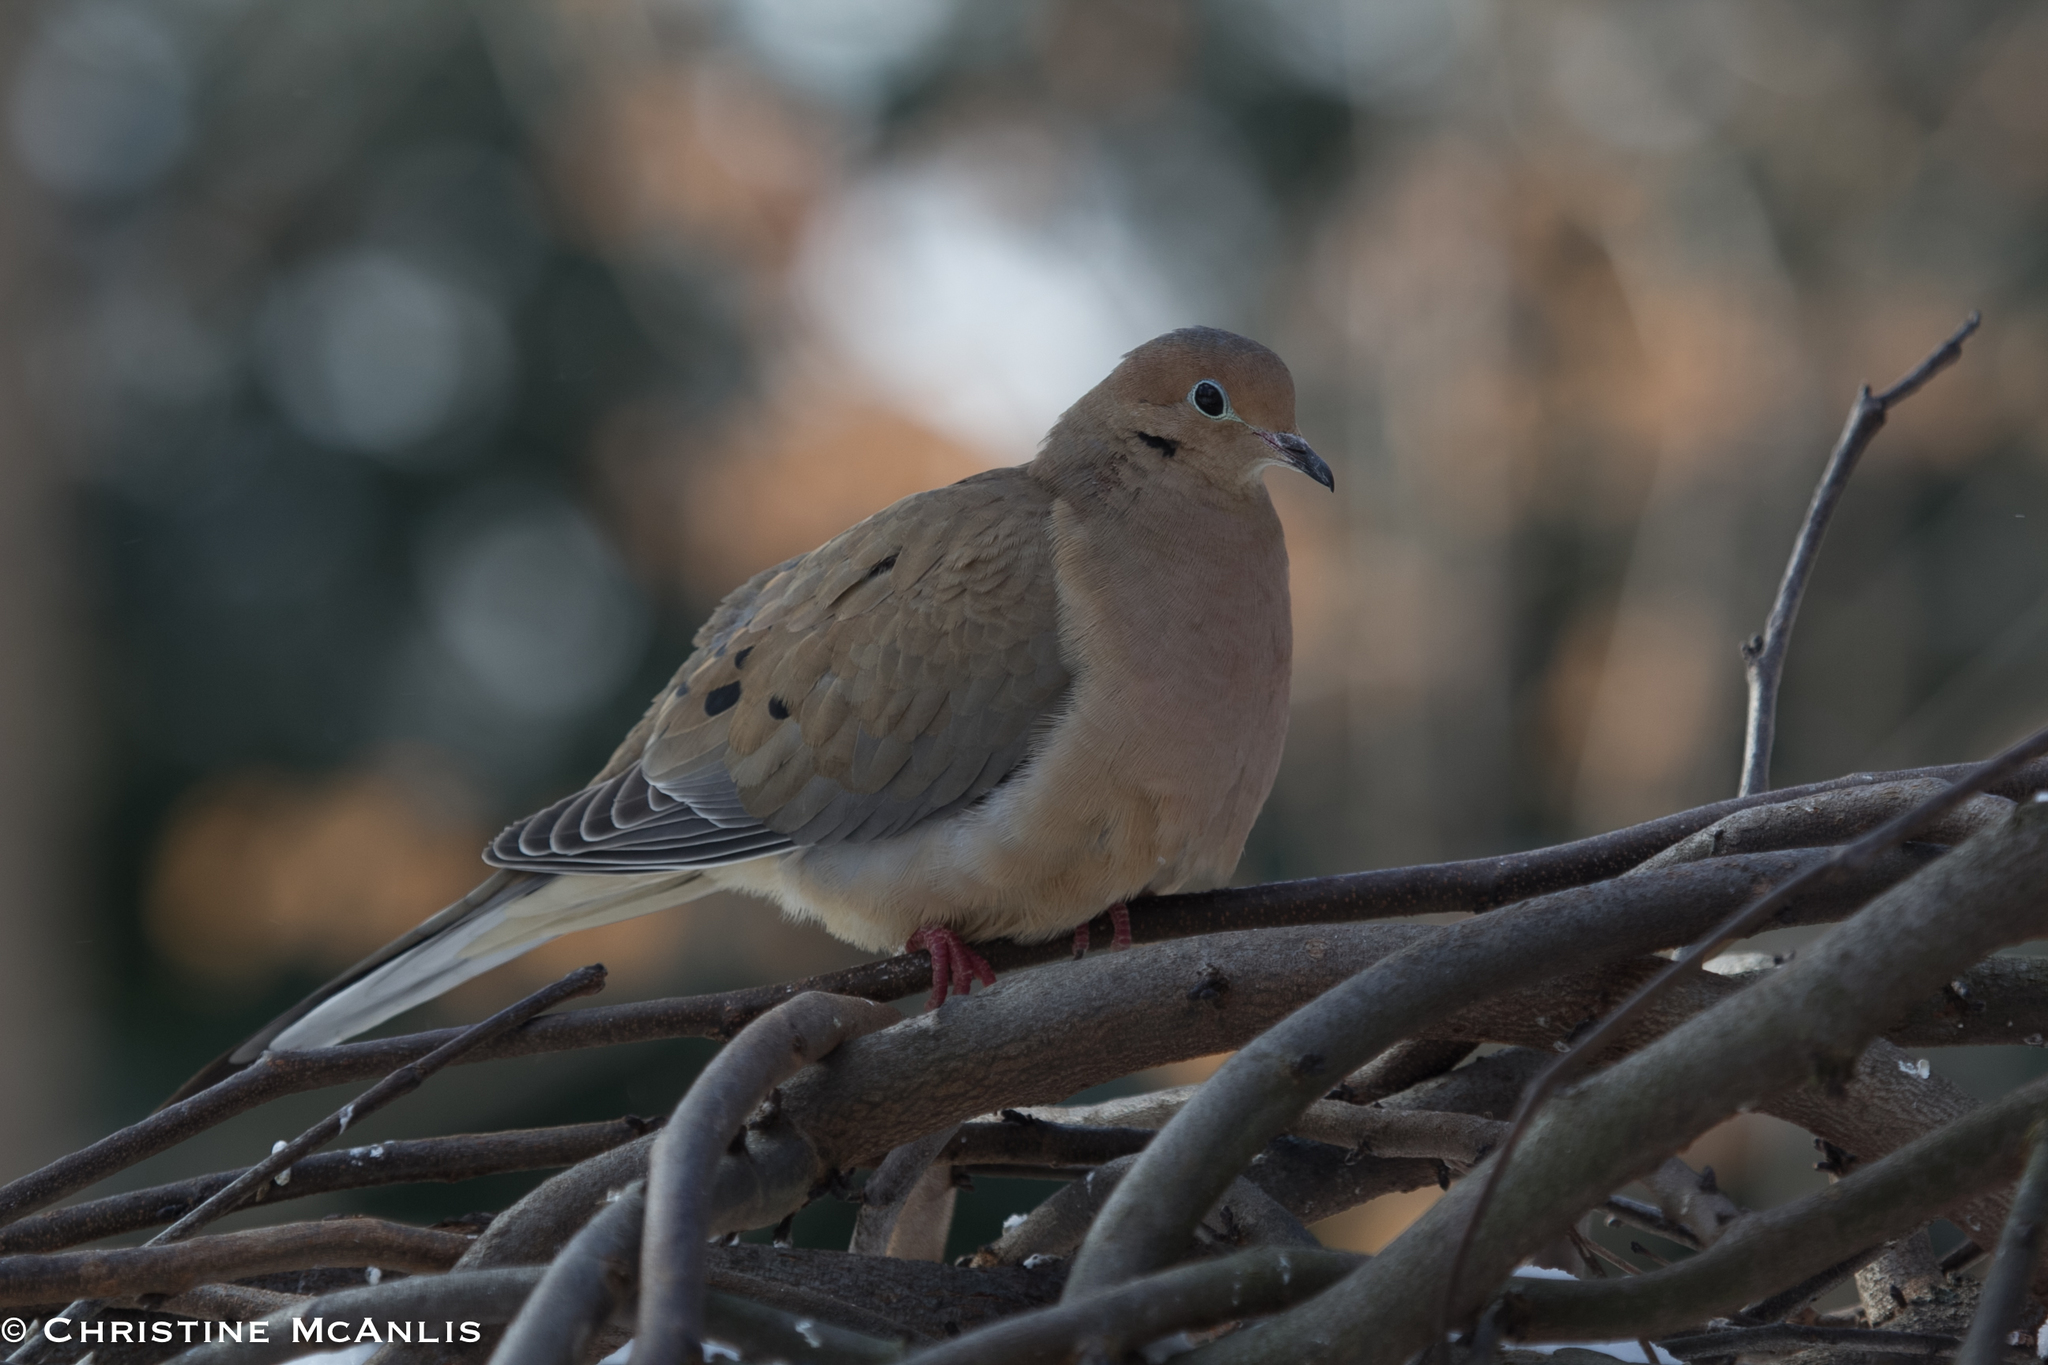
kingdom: Animalia
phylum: Chordata
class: Aves
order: Columbiformes
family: Columbidae
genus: Zenaida
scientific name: Zenaida macroura
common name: Mourning dove
